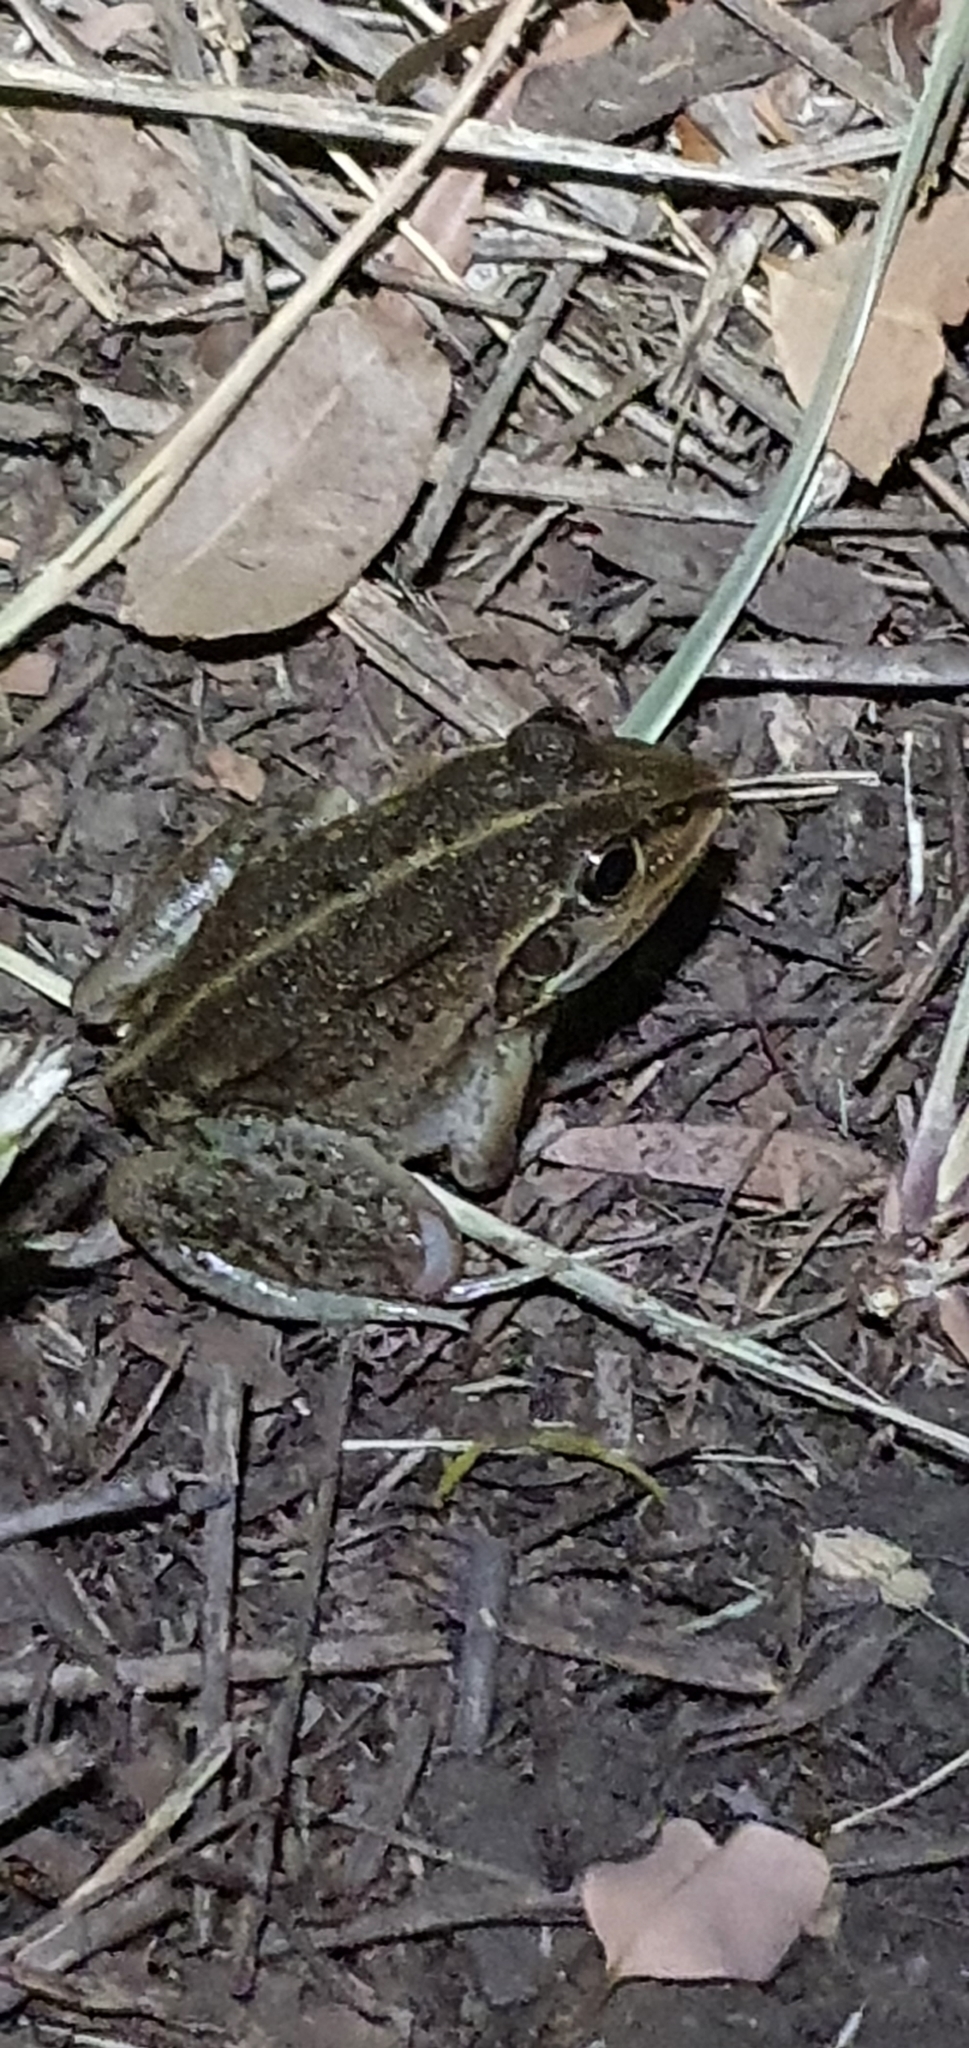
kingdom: Animalia
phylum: Chordata
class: Amphibia
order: Anura
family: Pelodryadidae
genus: Ranoidea
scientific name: Ranoidea alboguttata
